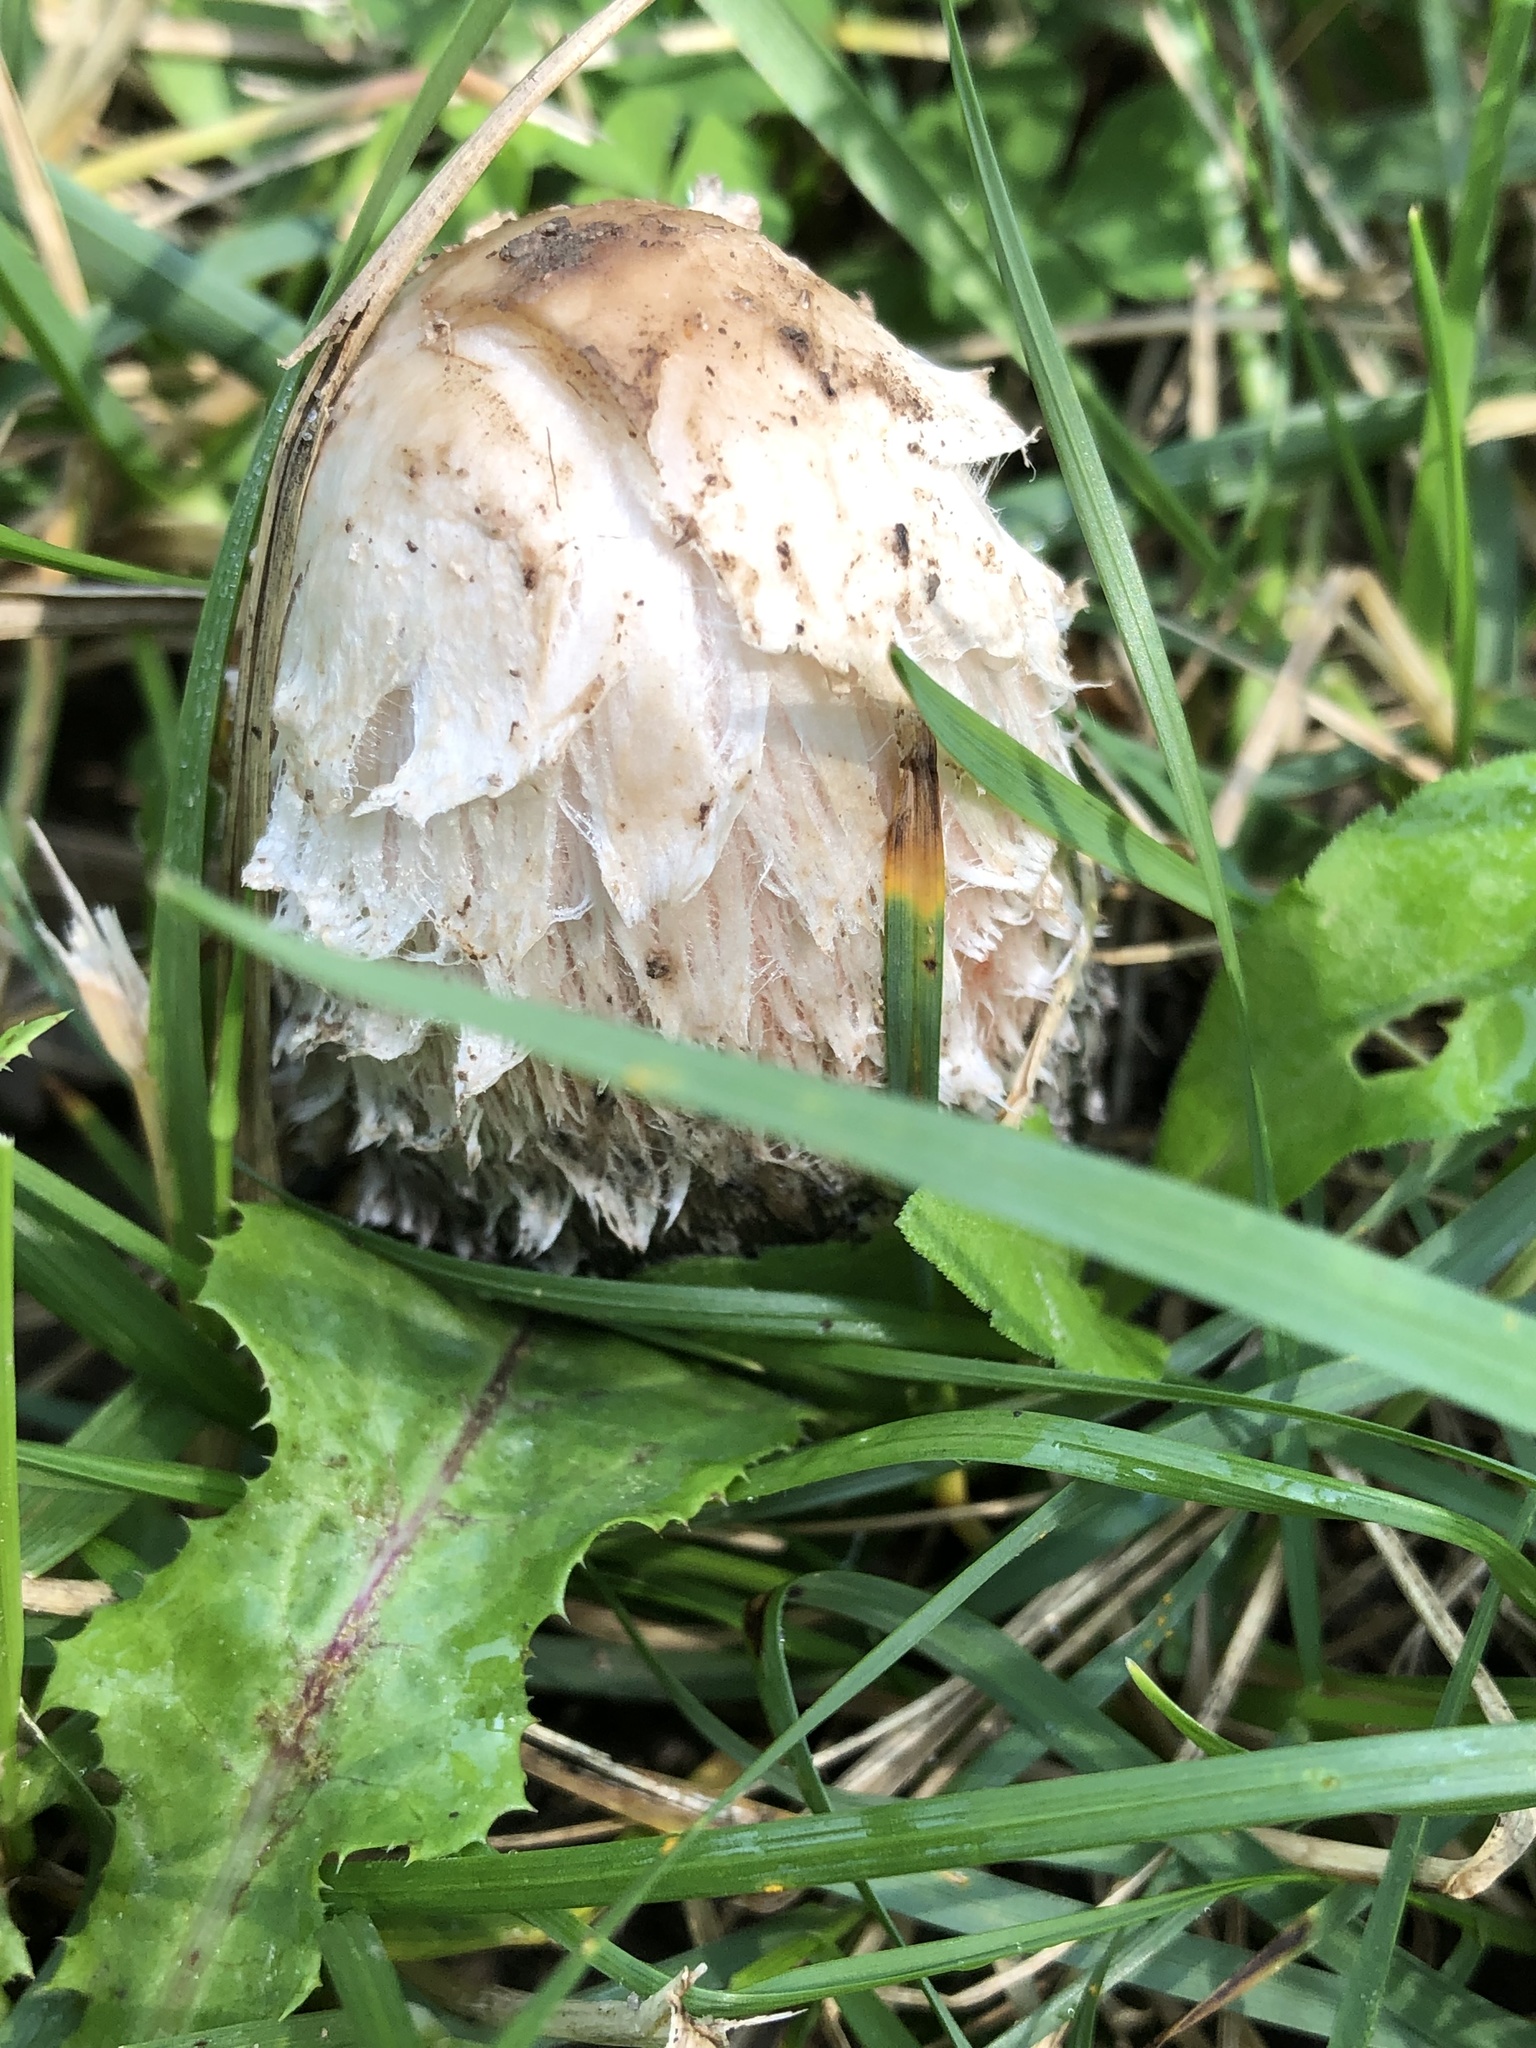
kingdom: Fungi
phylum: Basidiomycota
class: Agaricomycetes
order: Agaricales
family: Agaricaceae
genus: Coprinus
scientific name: Coprinus comatus
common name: Lawyer's wig
